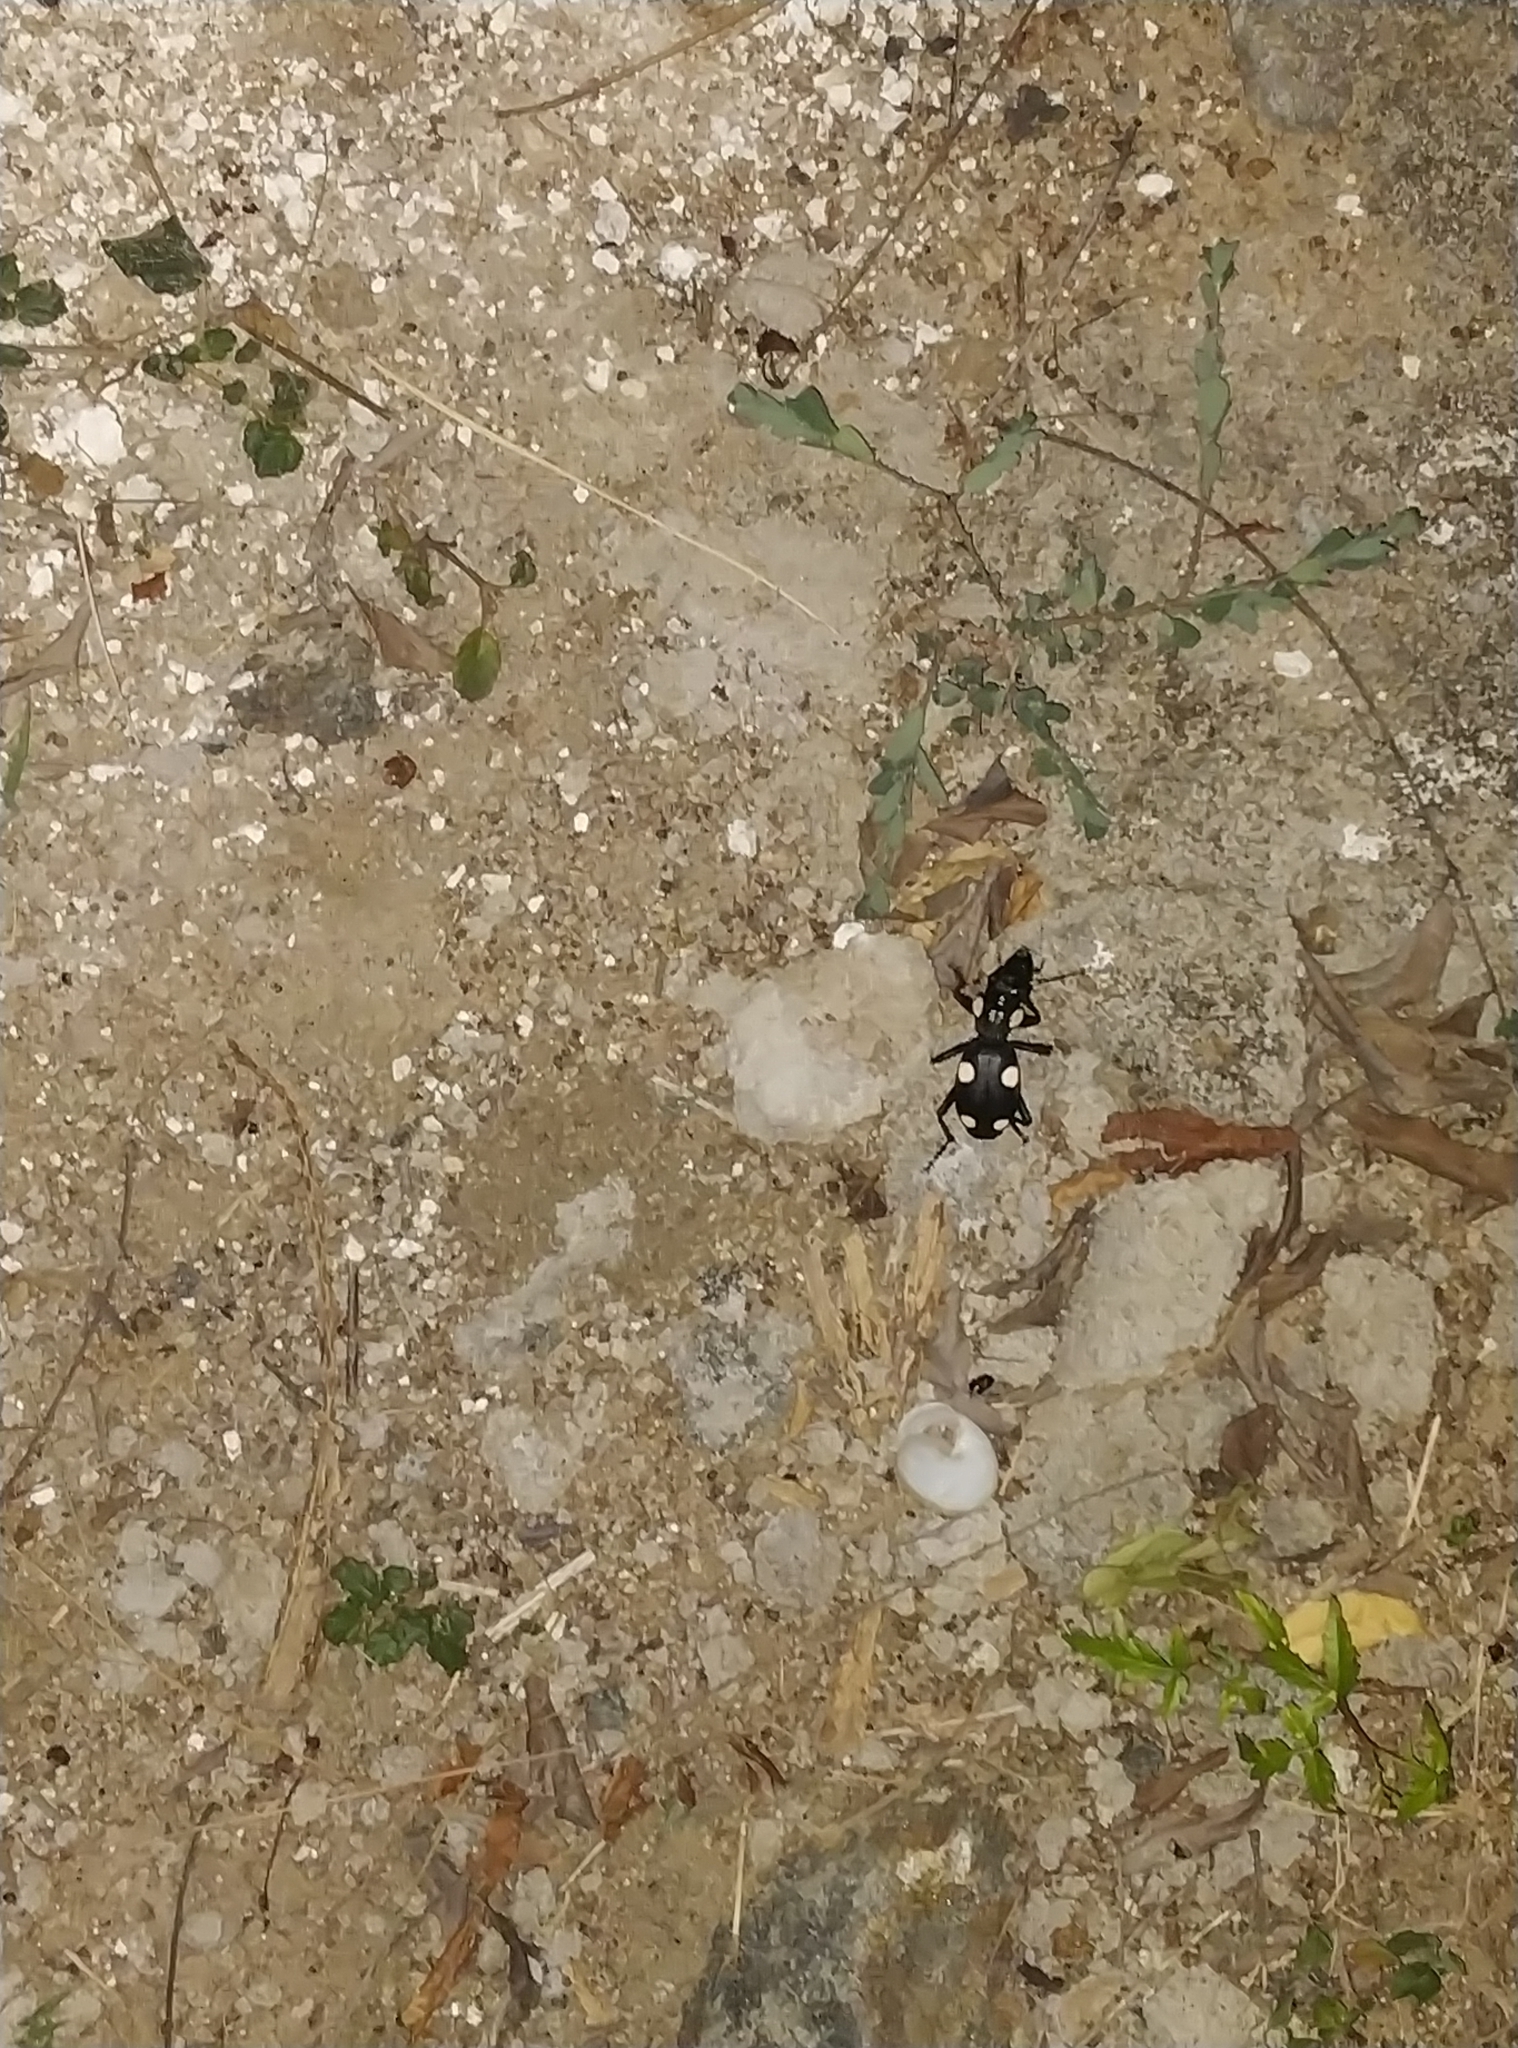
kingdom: Animalia
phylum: Arthropoda
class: Insecta
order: Coleoptera
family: Carabidae
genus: Anthia
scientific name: Anthia sexguttata
